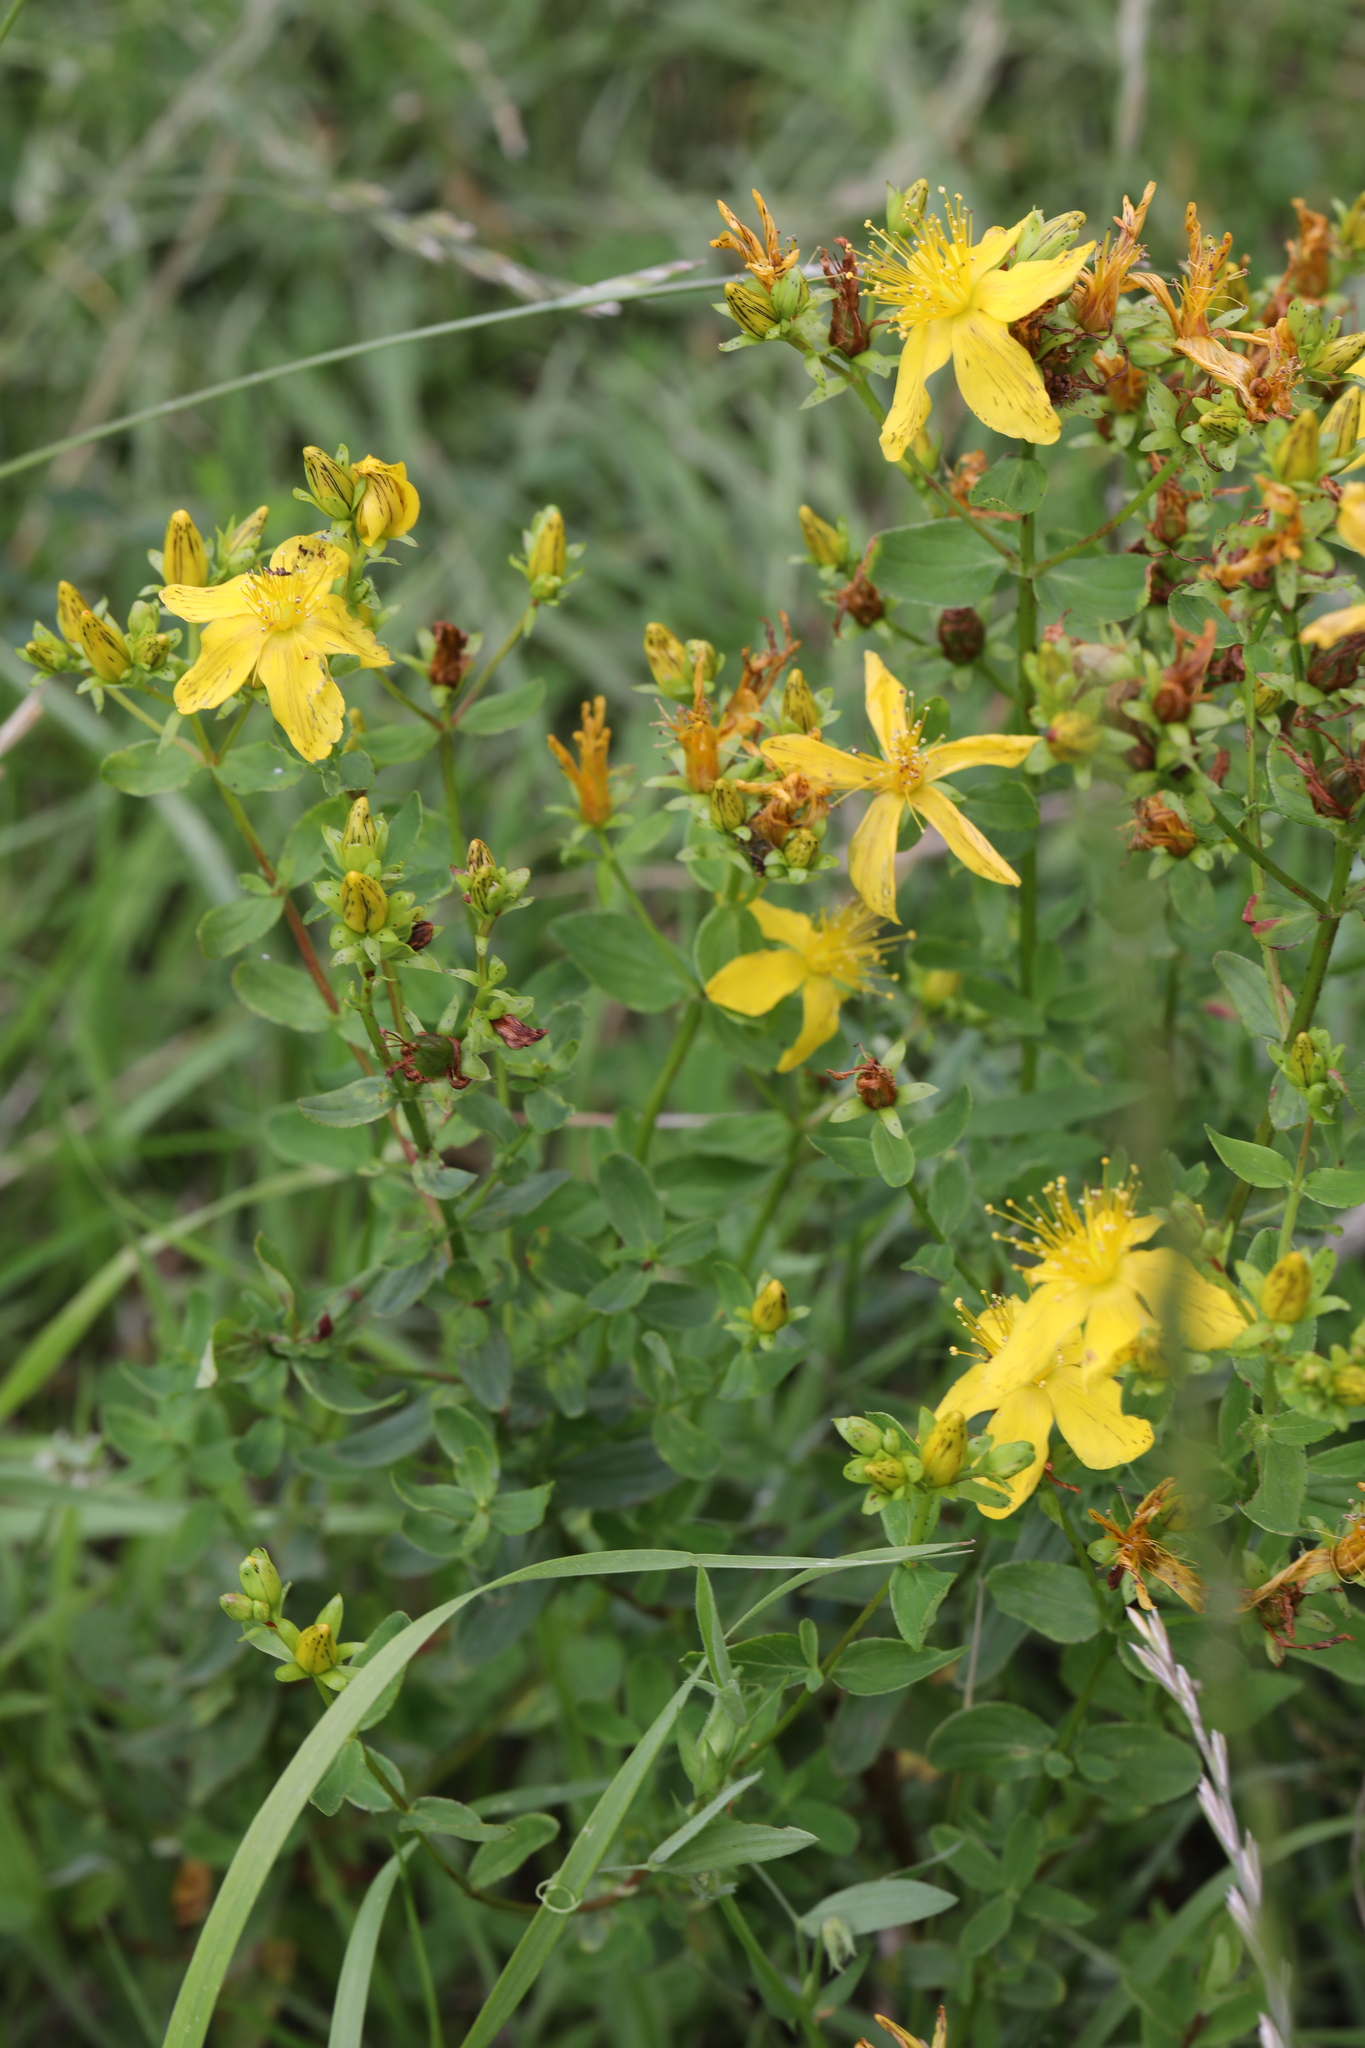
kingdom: Plantae
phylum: Tracheophyta
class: Magnoliopsida
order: Malpighiales
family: Hypericaceae
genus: Hypericum
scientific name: Hypericum perforatum
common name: Common st. johnswort
